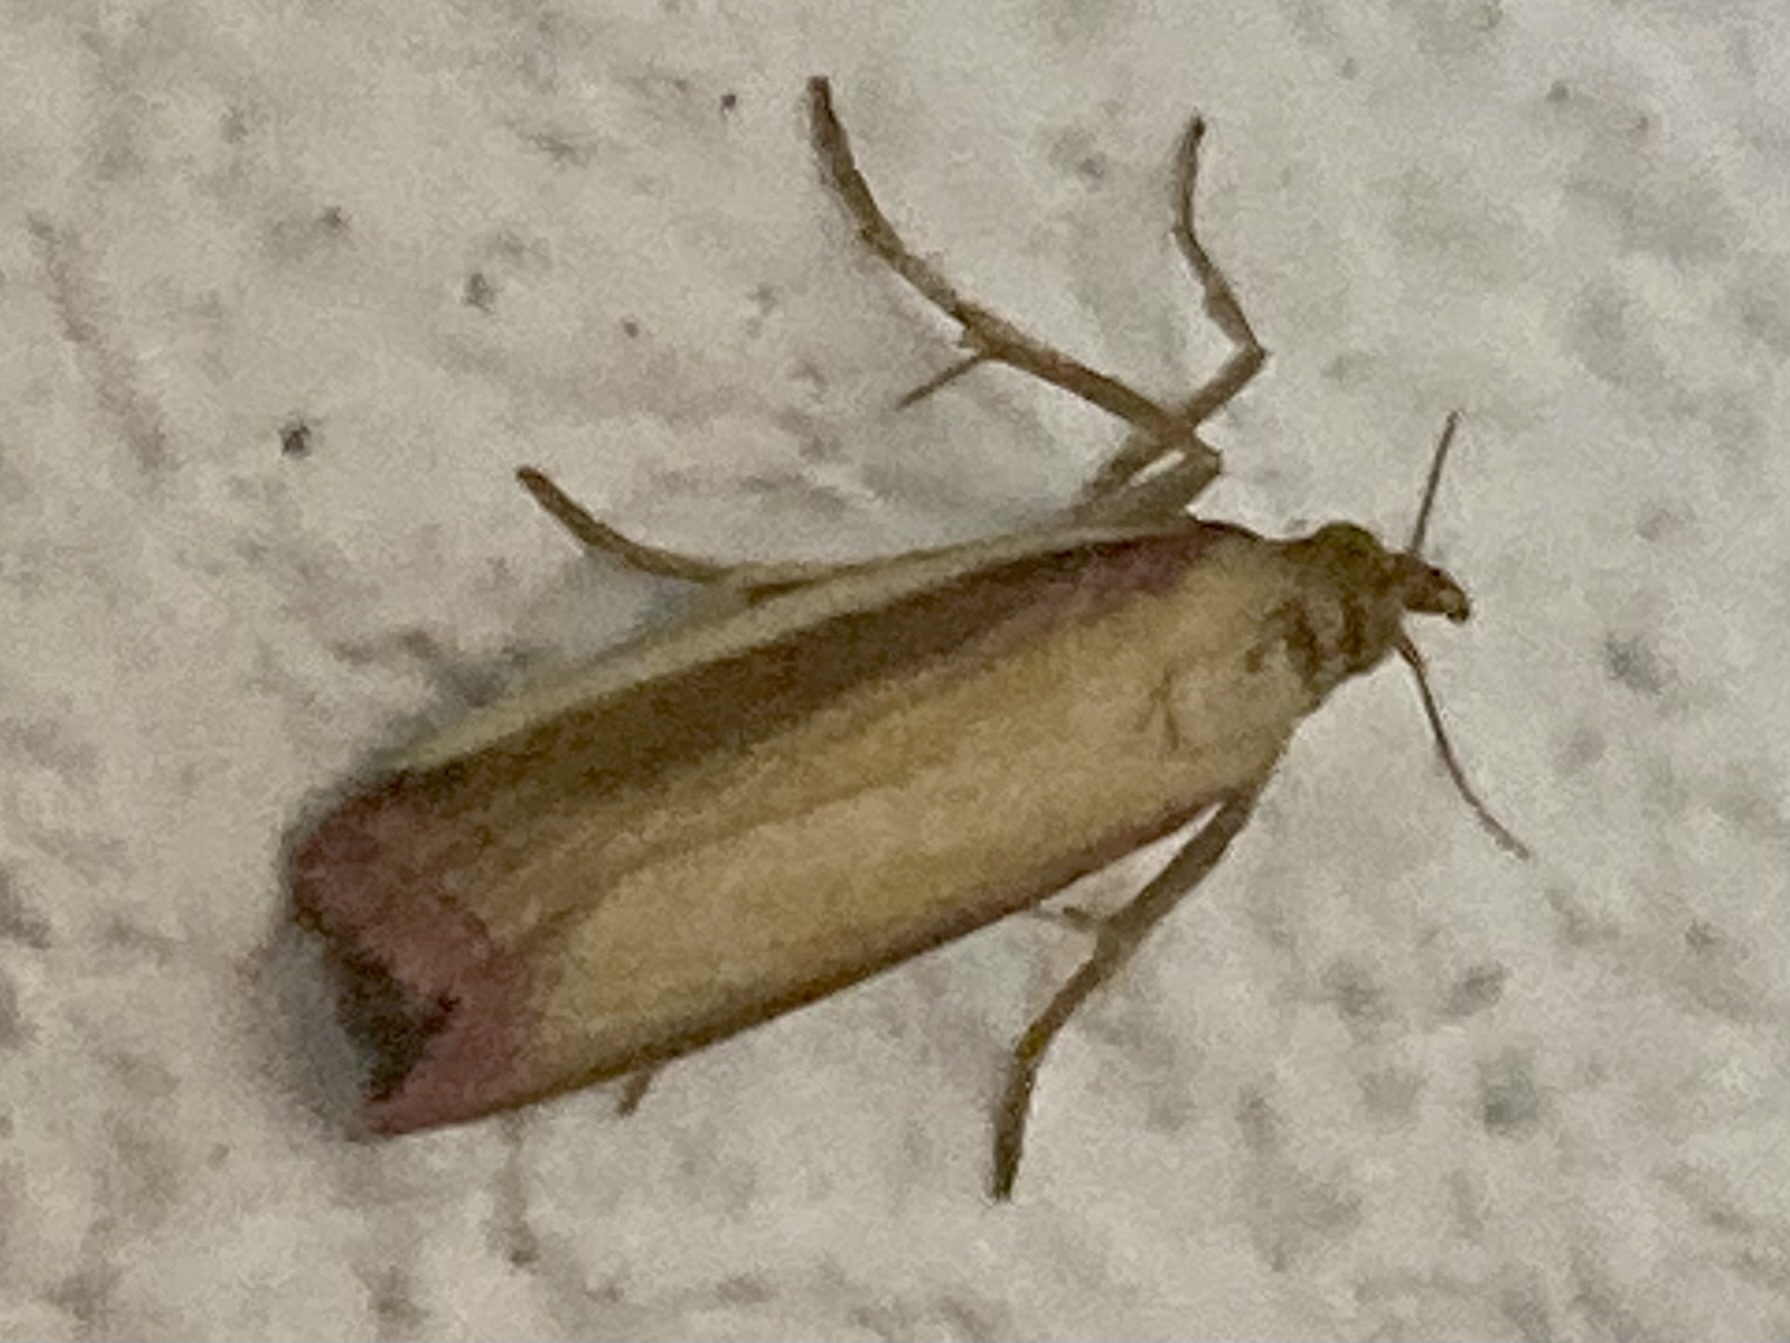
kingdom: Animalia
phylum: Arthropoda
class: Insecta
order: Lepidoptera
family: Pyralidae
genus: Oncocera
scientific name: Oncocera semirubella
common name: Rosy-striped knot-horn
